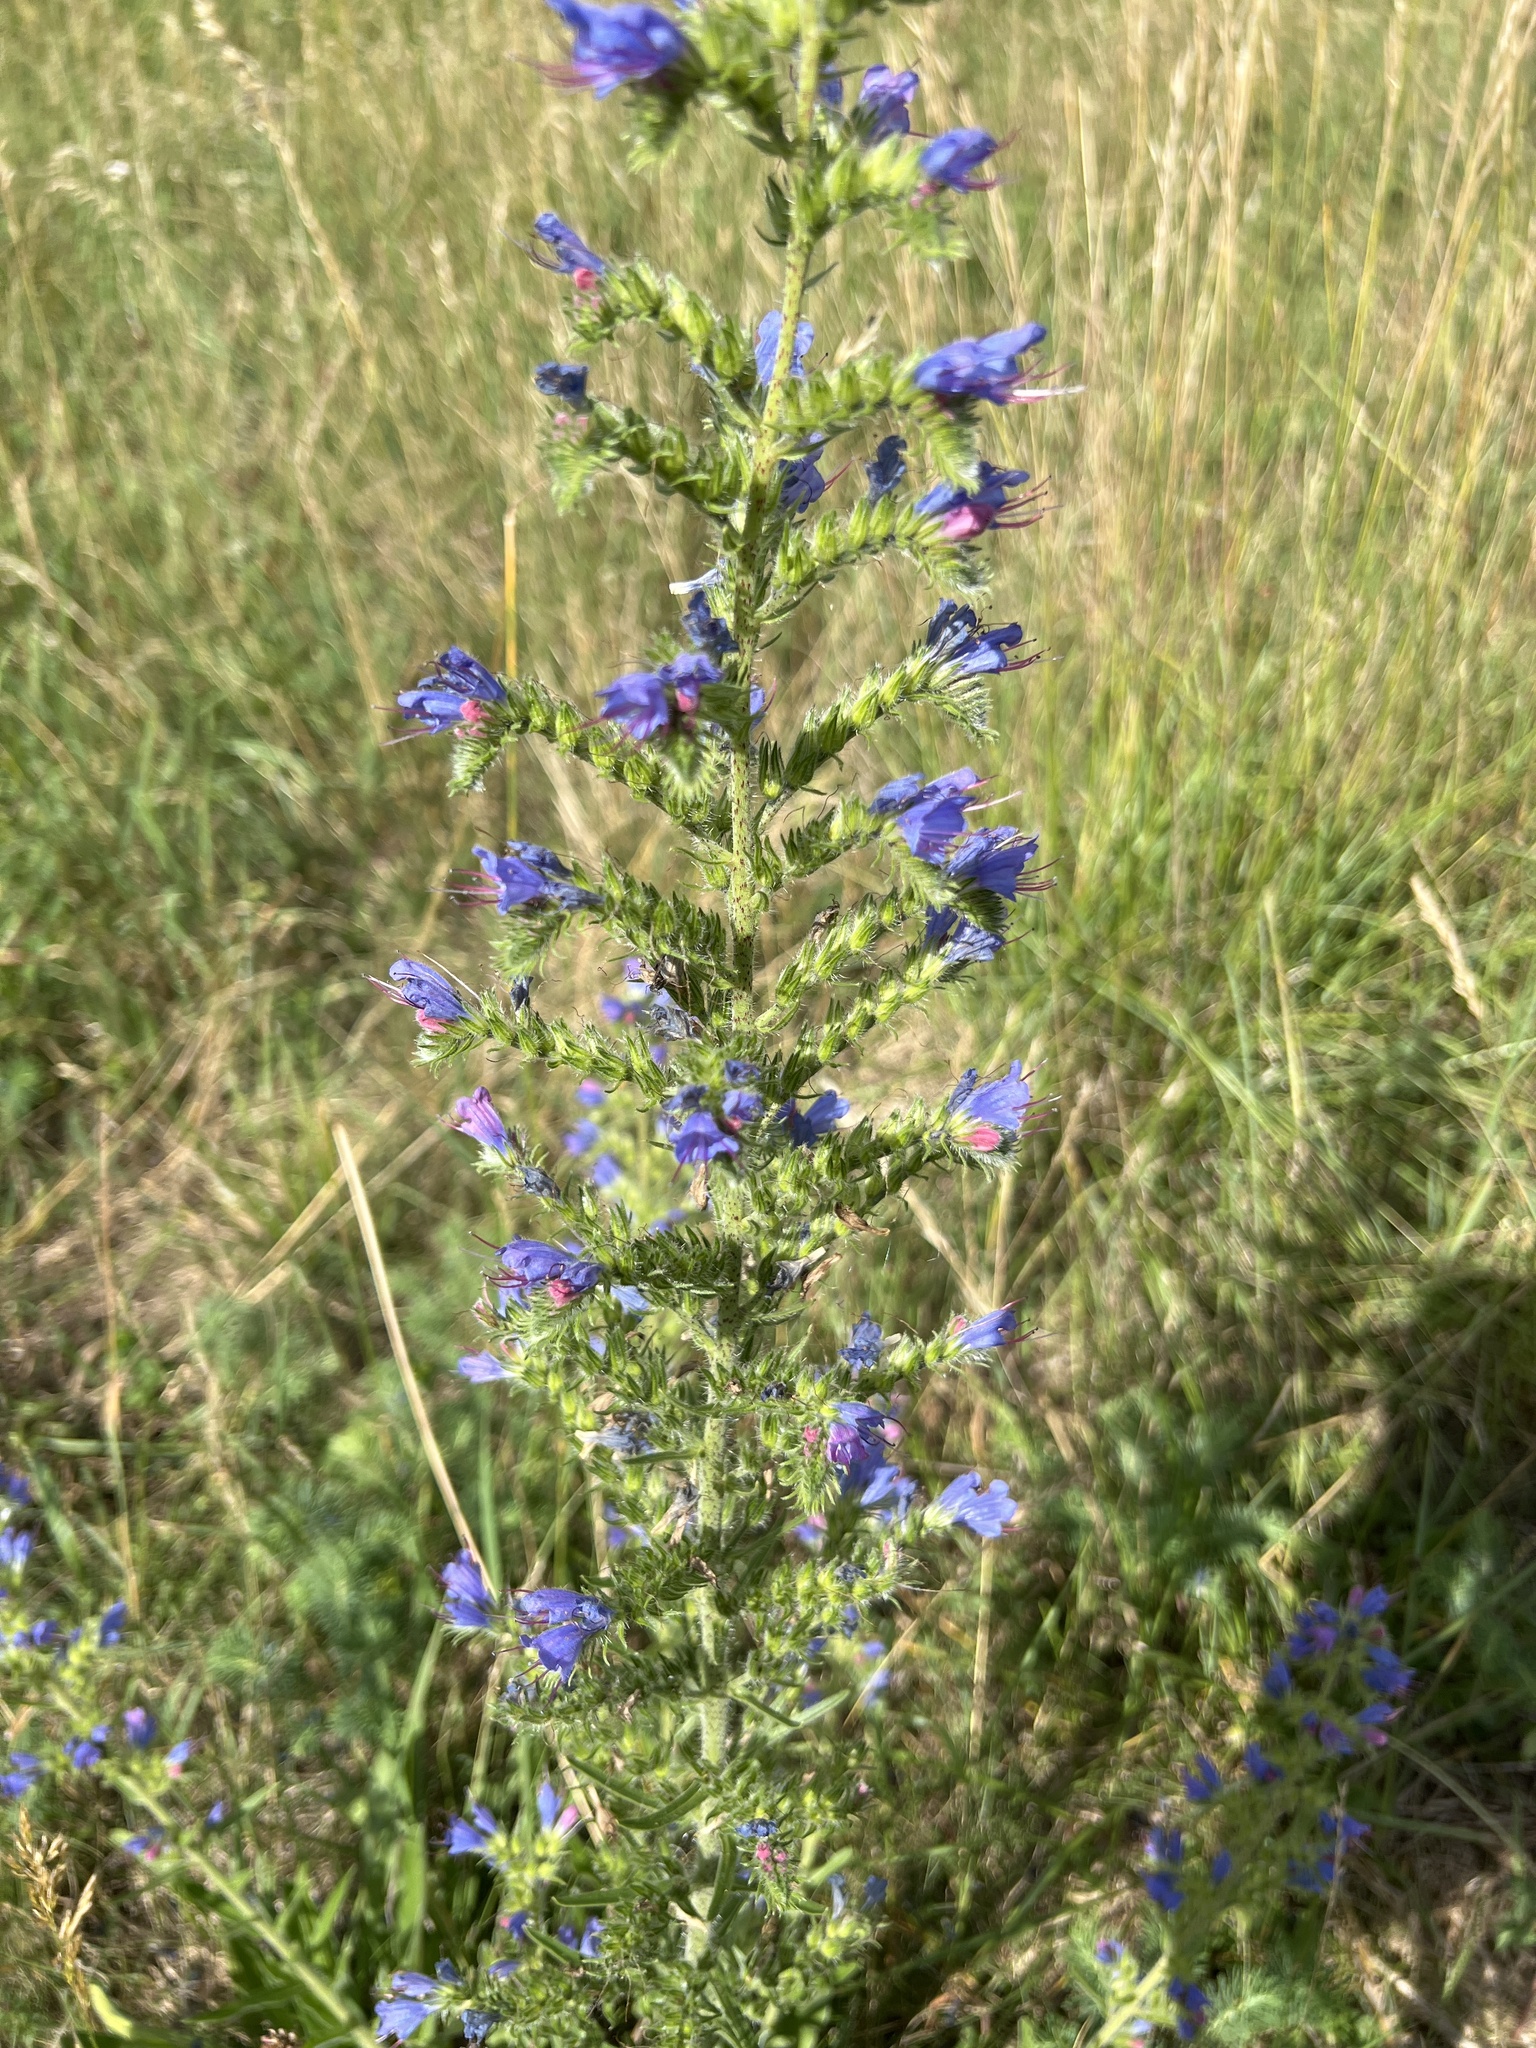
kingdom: Plantae
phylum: Tracheophyta
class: Magnoliopsida
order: Boraginales
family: Boraginaceae
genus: Echium
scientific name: Echium vulgare
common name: Common viper's bugloss
